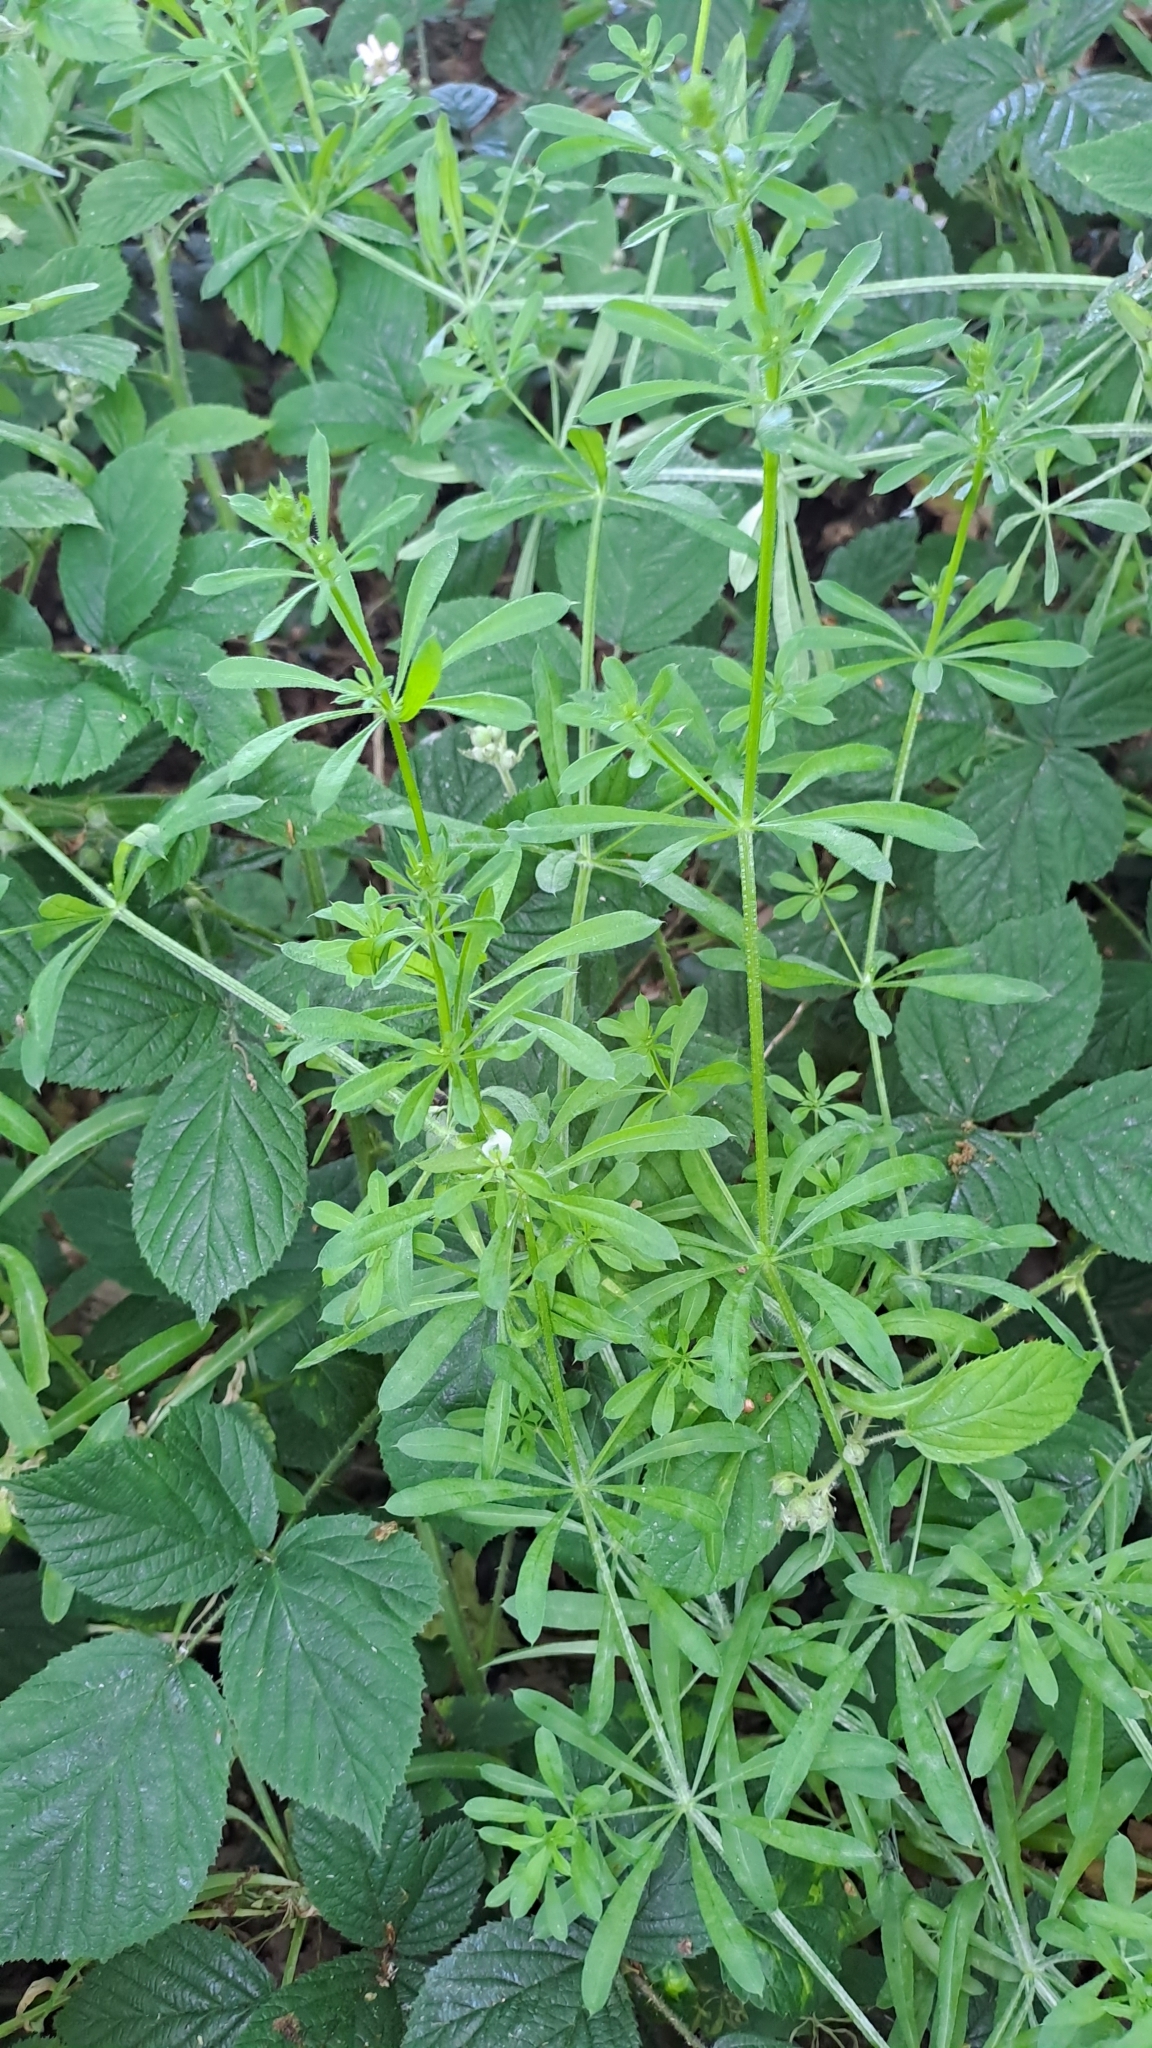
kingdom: Plantae
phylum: Tracheophyta
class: Magnoliopsida
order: Gentianales
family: Rubiaceae
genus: Galium
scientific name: Galium aparine
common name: Cleavers
